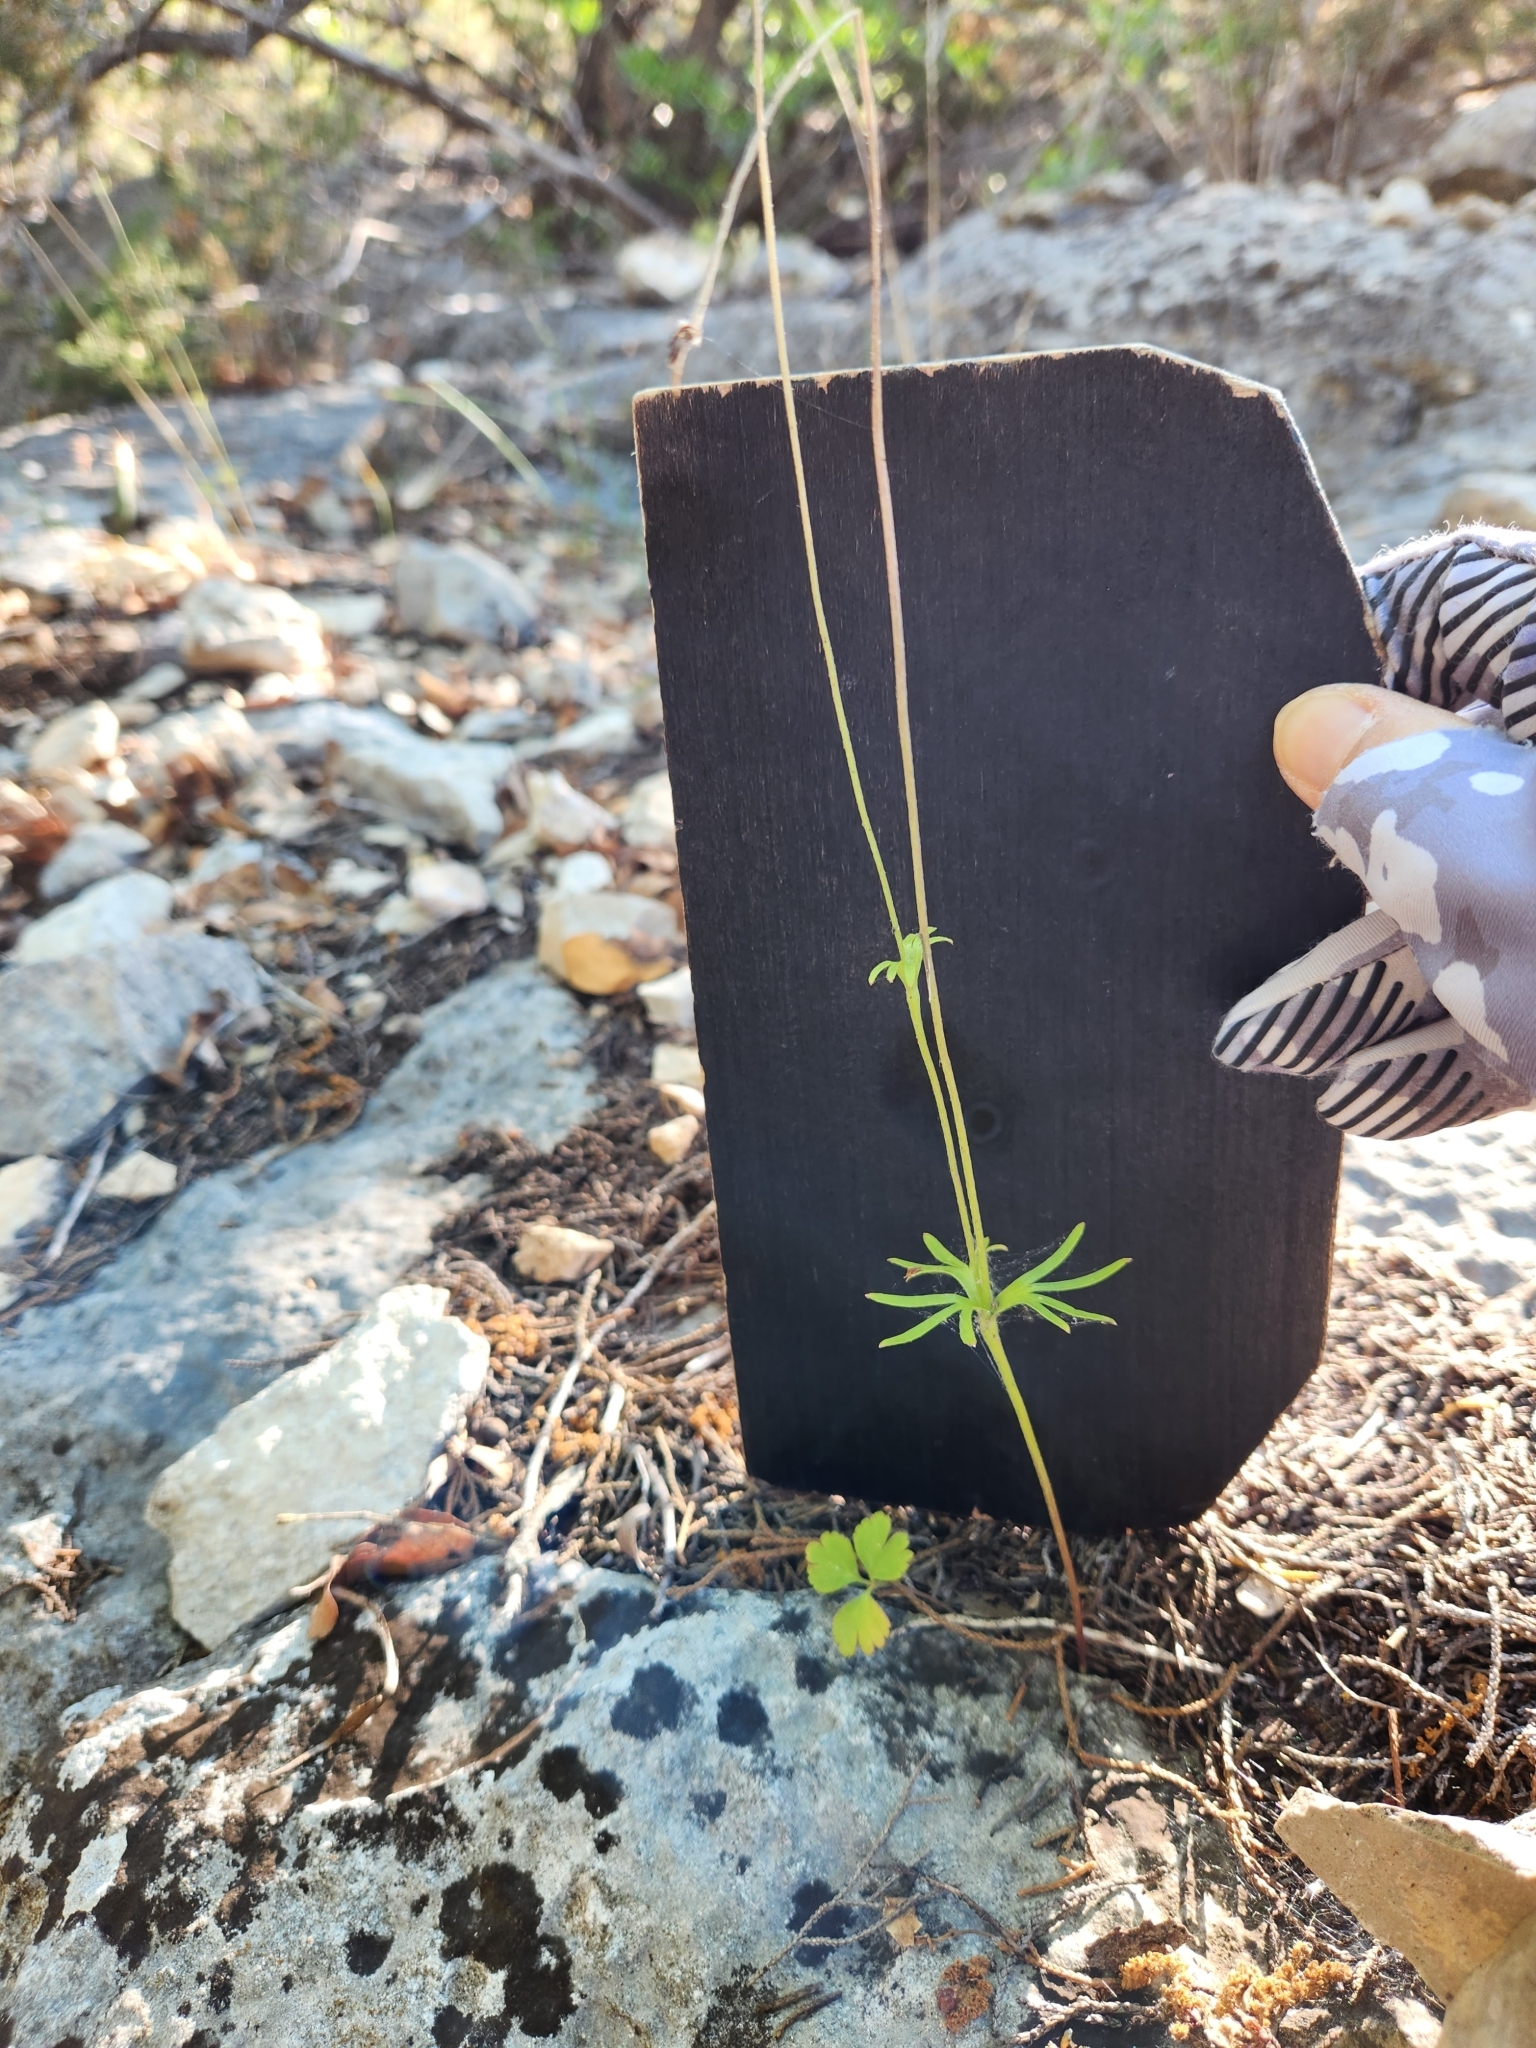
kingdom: Plantae
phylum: Tracheophyta
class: Magnoliopsida
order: Ranunculales
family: Ranunculaceae
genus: Anemone
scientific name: Anemone edwardsiana
